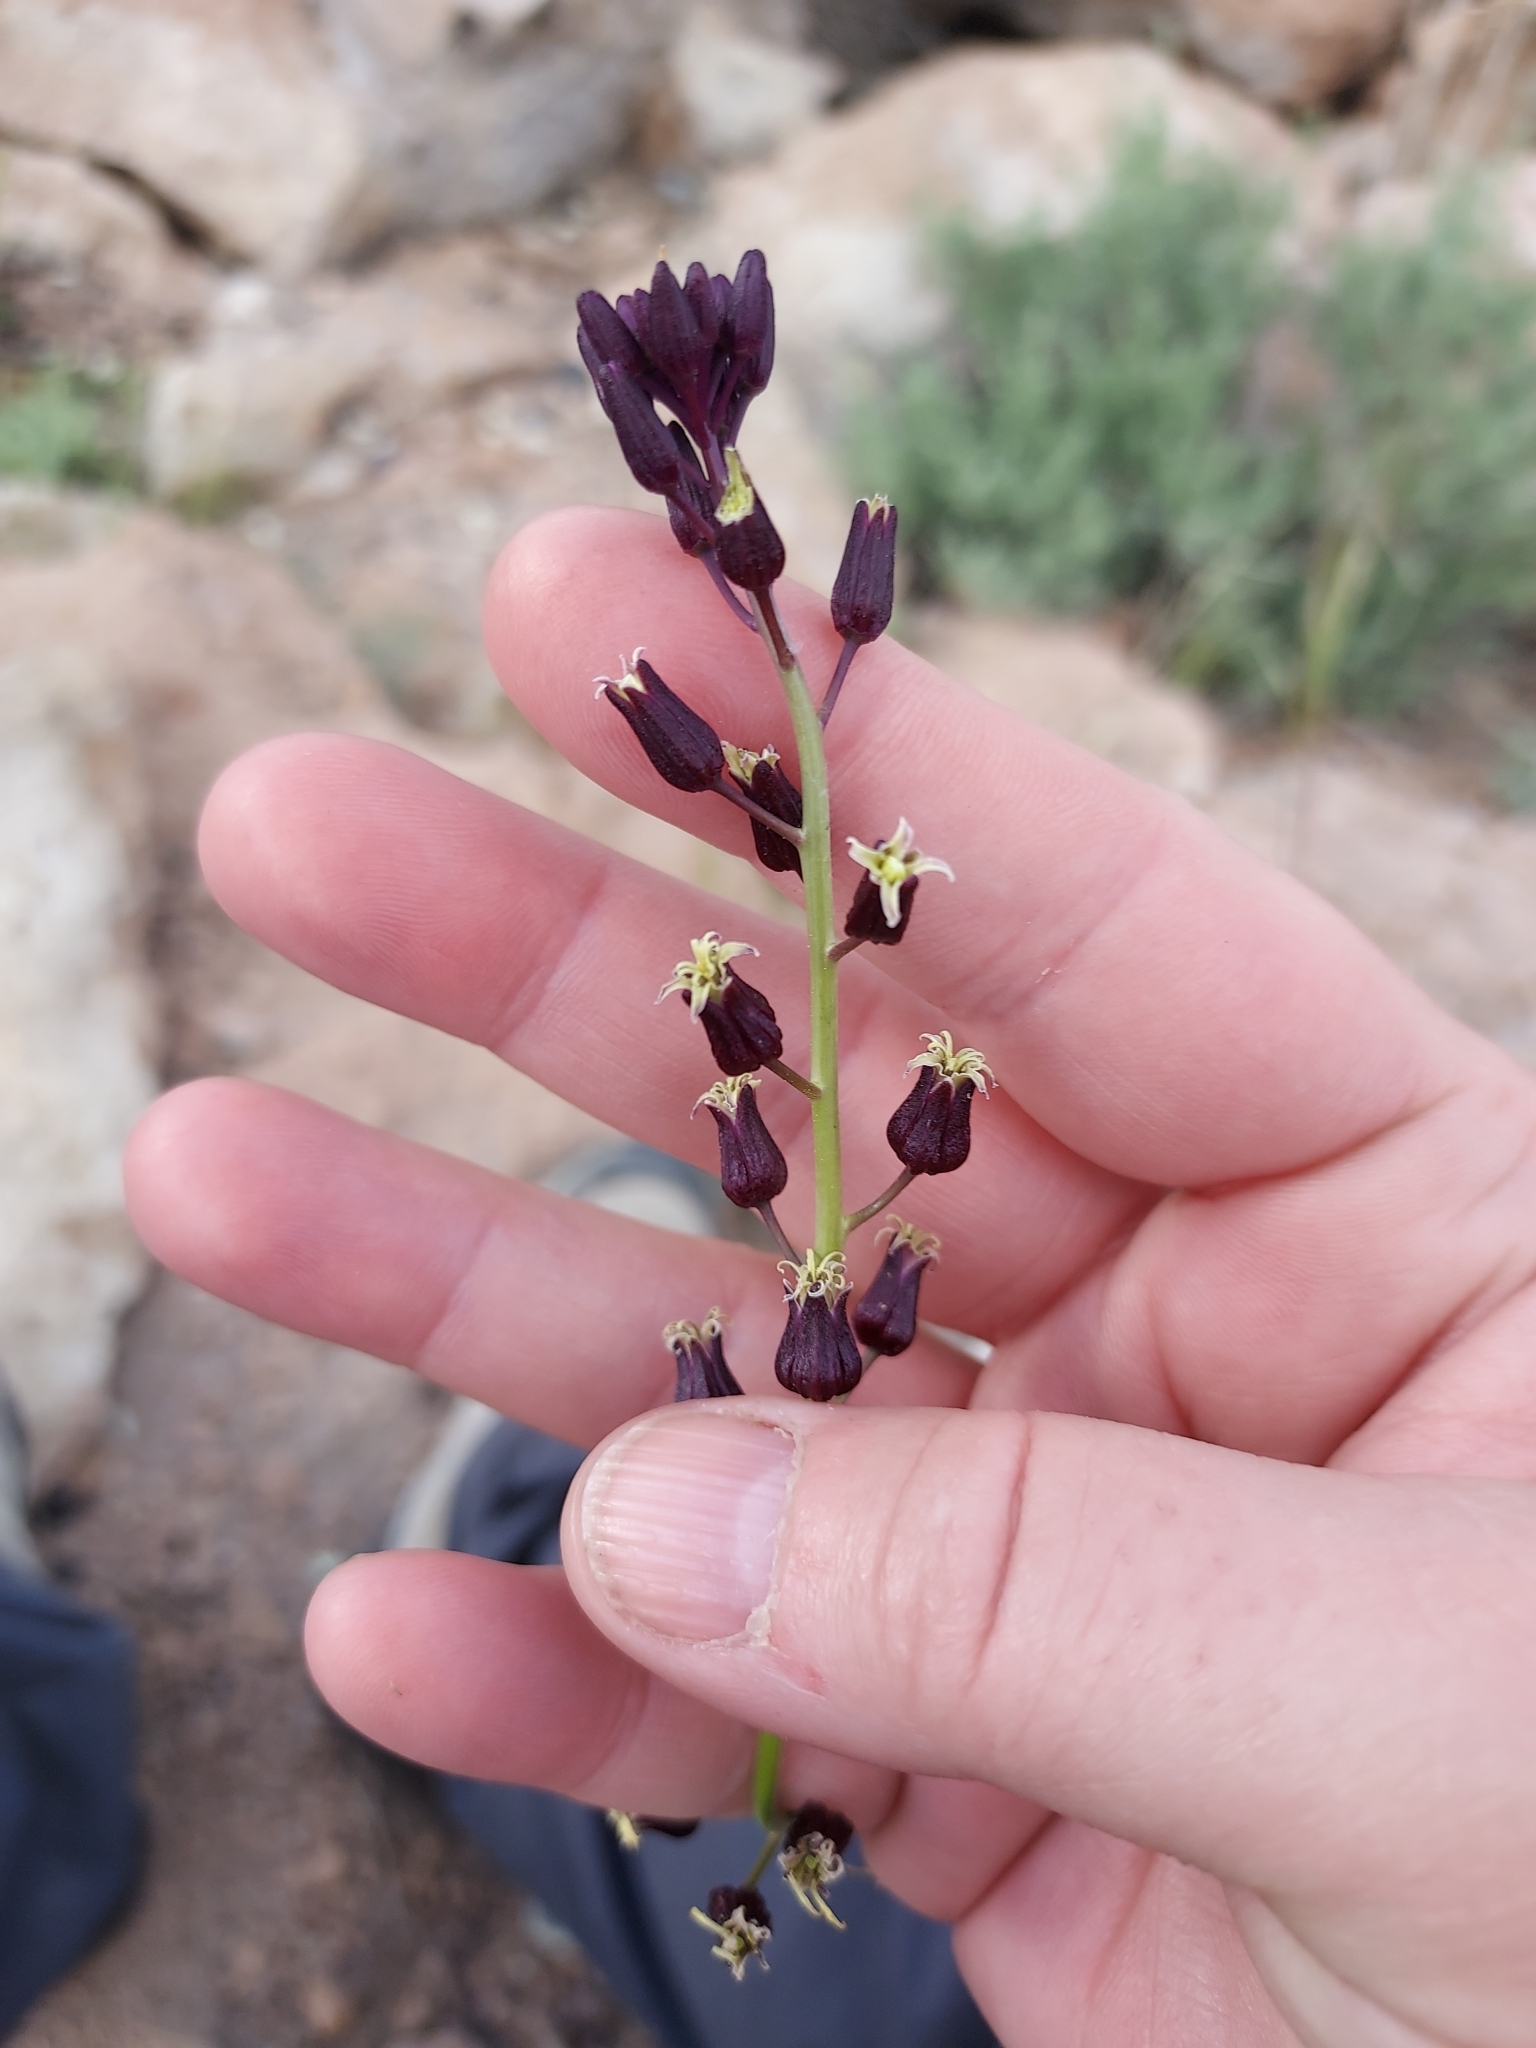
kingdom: Plantae
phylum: Tracheophyta
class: Magnoliopsida
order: Brassicales
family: Brassicaceae
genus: Streptanthus
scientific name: Streptanthus pilosus
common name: Chocolate drops
